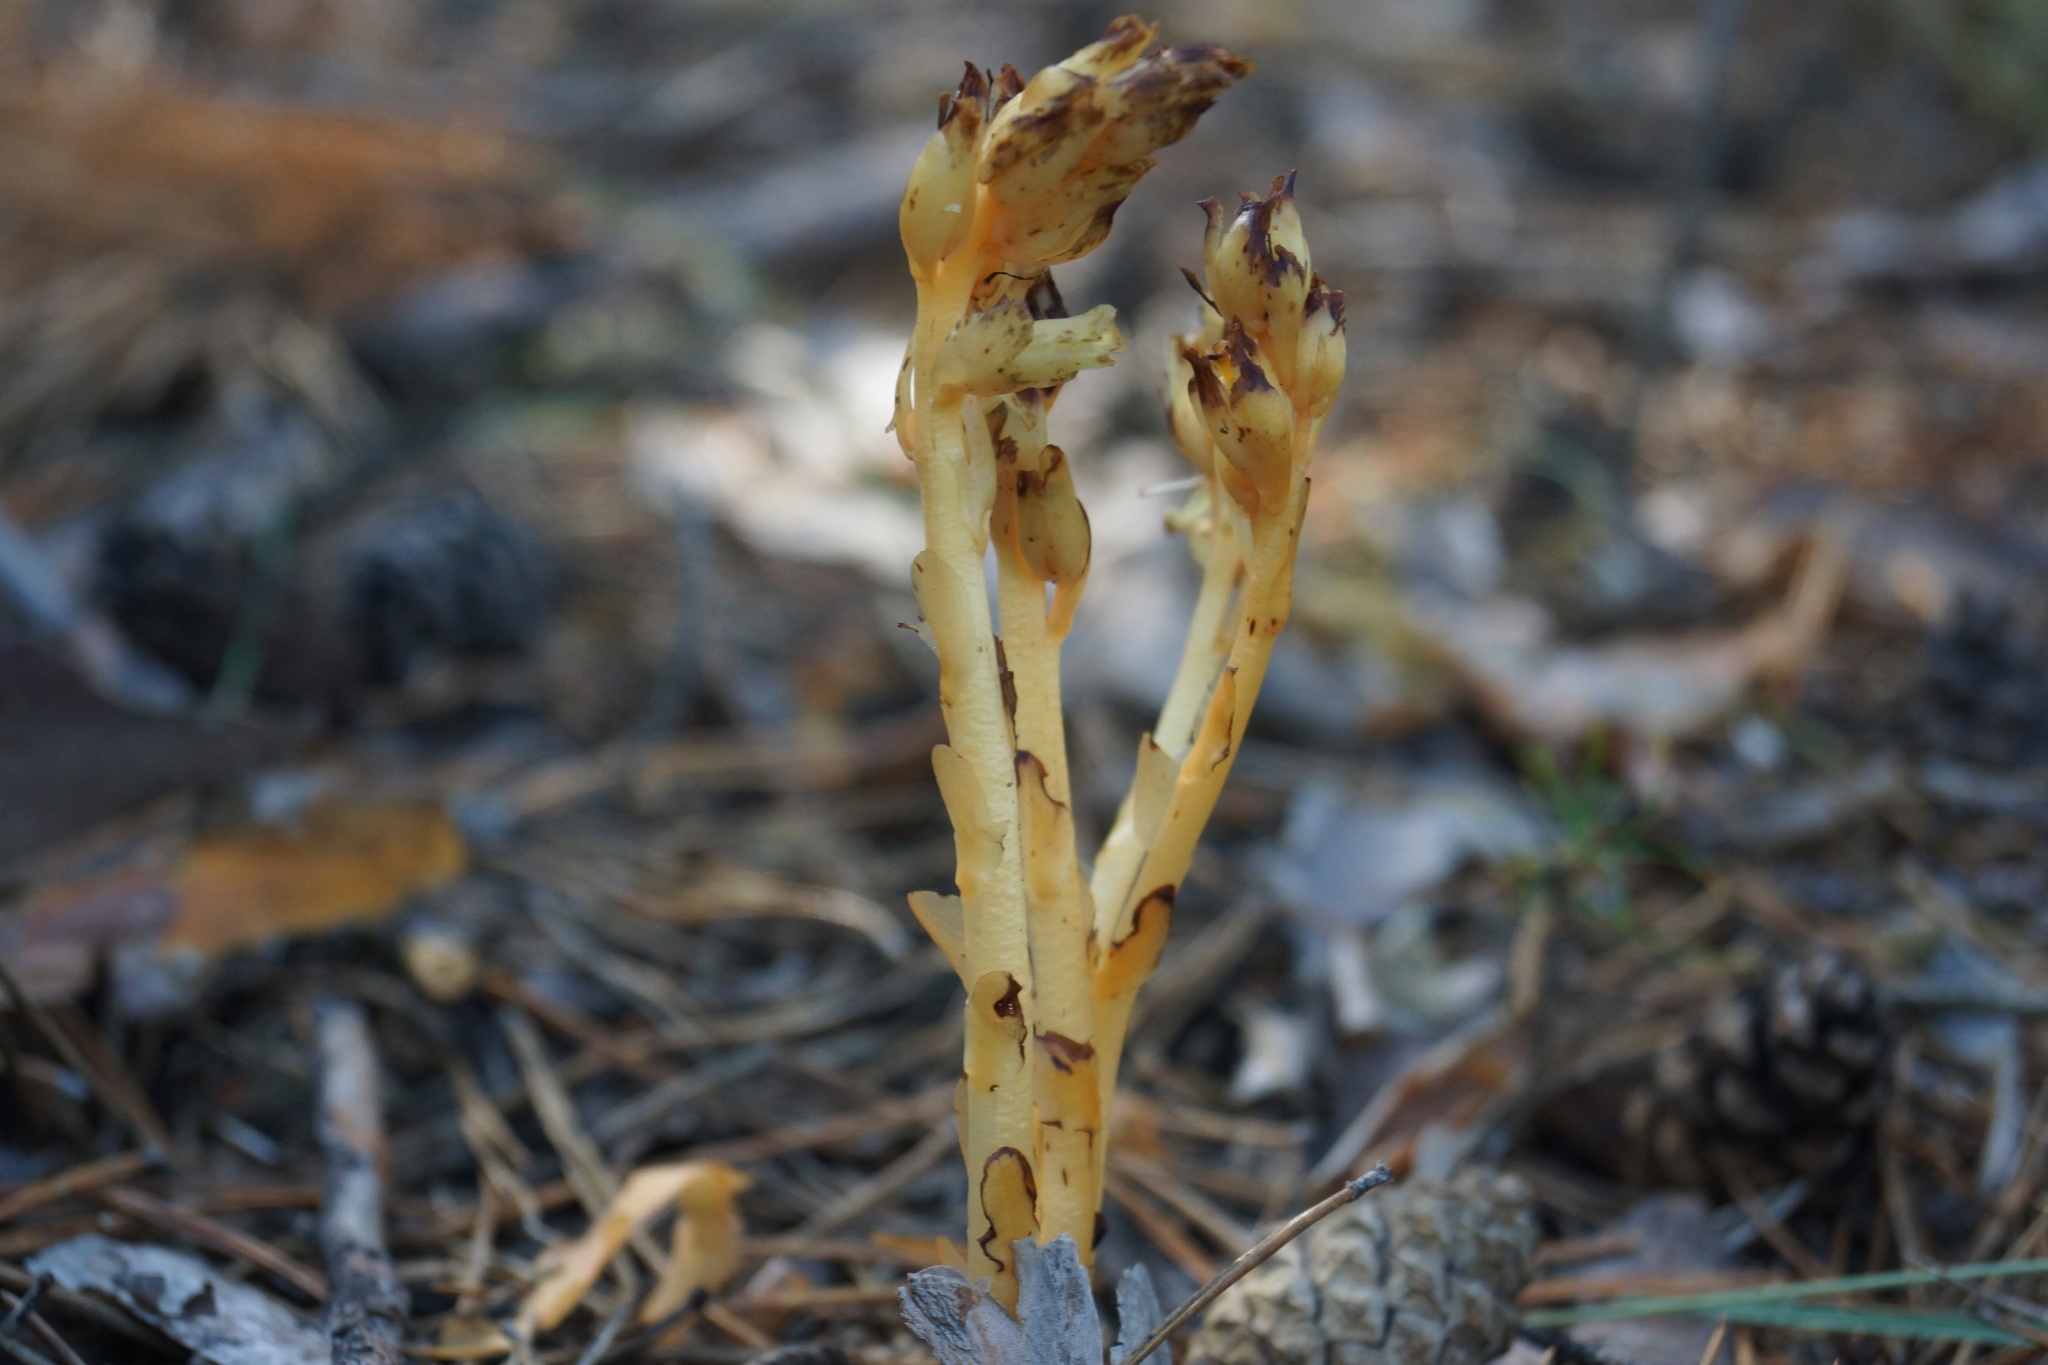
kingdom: Plantae
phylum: Tracheophyta
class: Magnoliopsida
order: Ericales
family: Ericaceae
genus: Hypopitys
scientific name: Hypopitys monotropa
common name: Yellow bird's-nest
